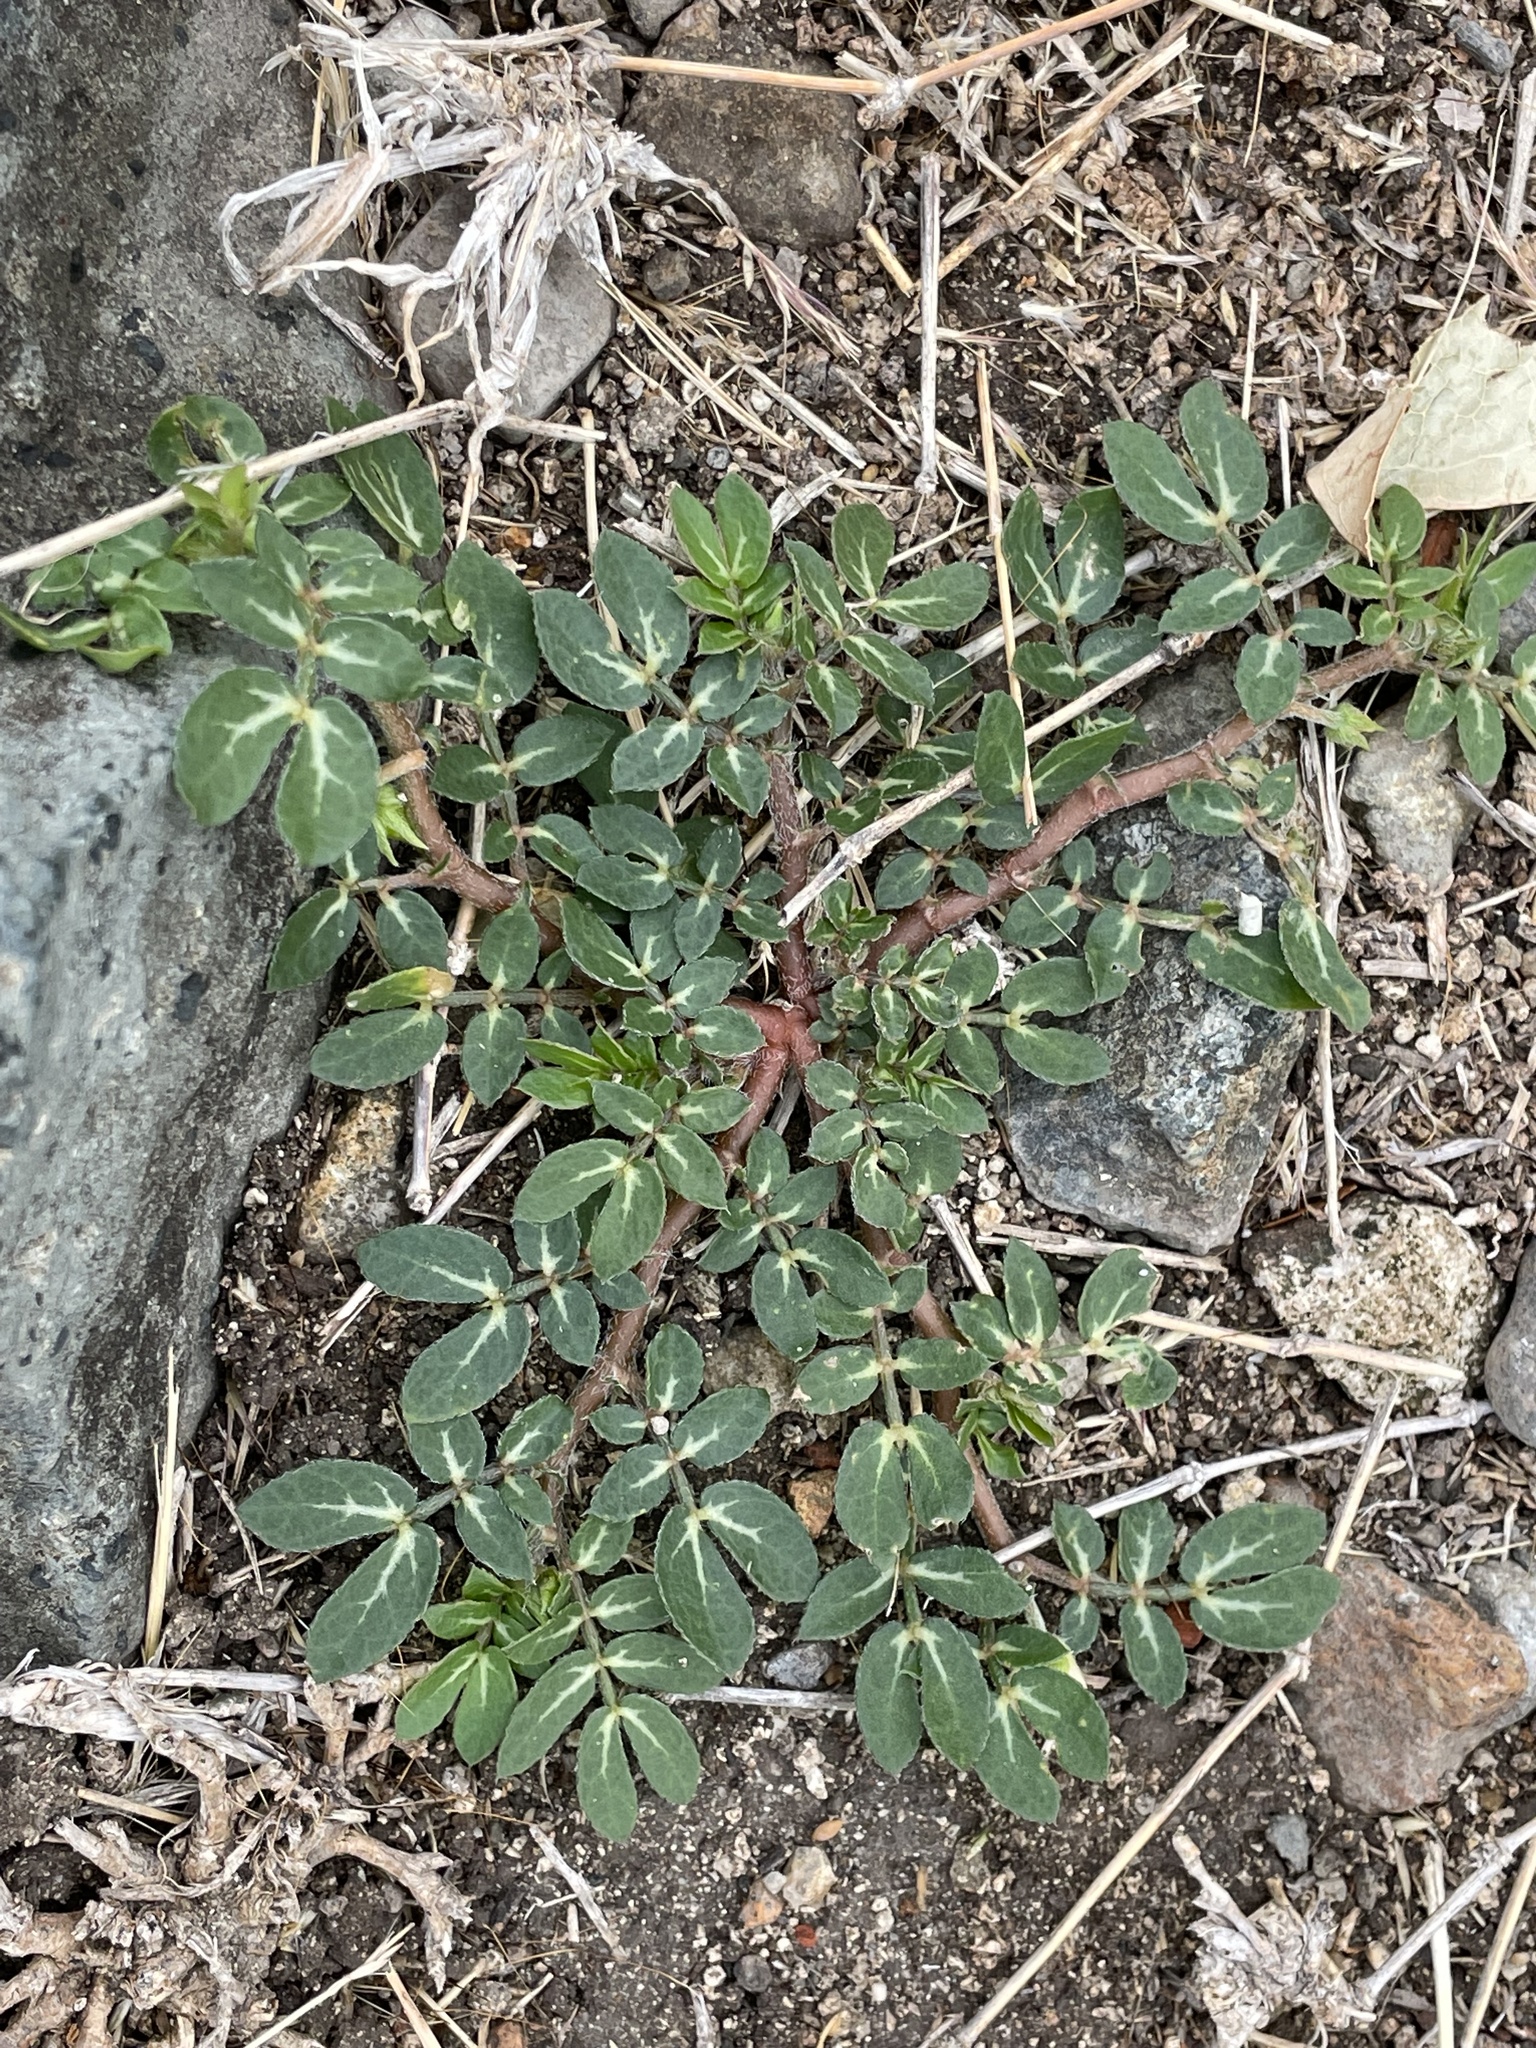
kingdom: Plantae
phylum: Tracheophyta
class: Magnoliopsida
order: Zygophyllales
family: Zygophyllaceae
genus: Kallstroemia
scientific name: Kallstroemia maxima
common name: Big caltropa
